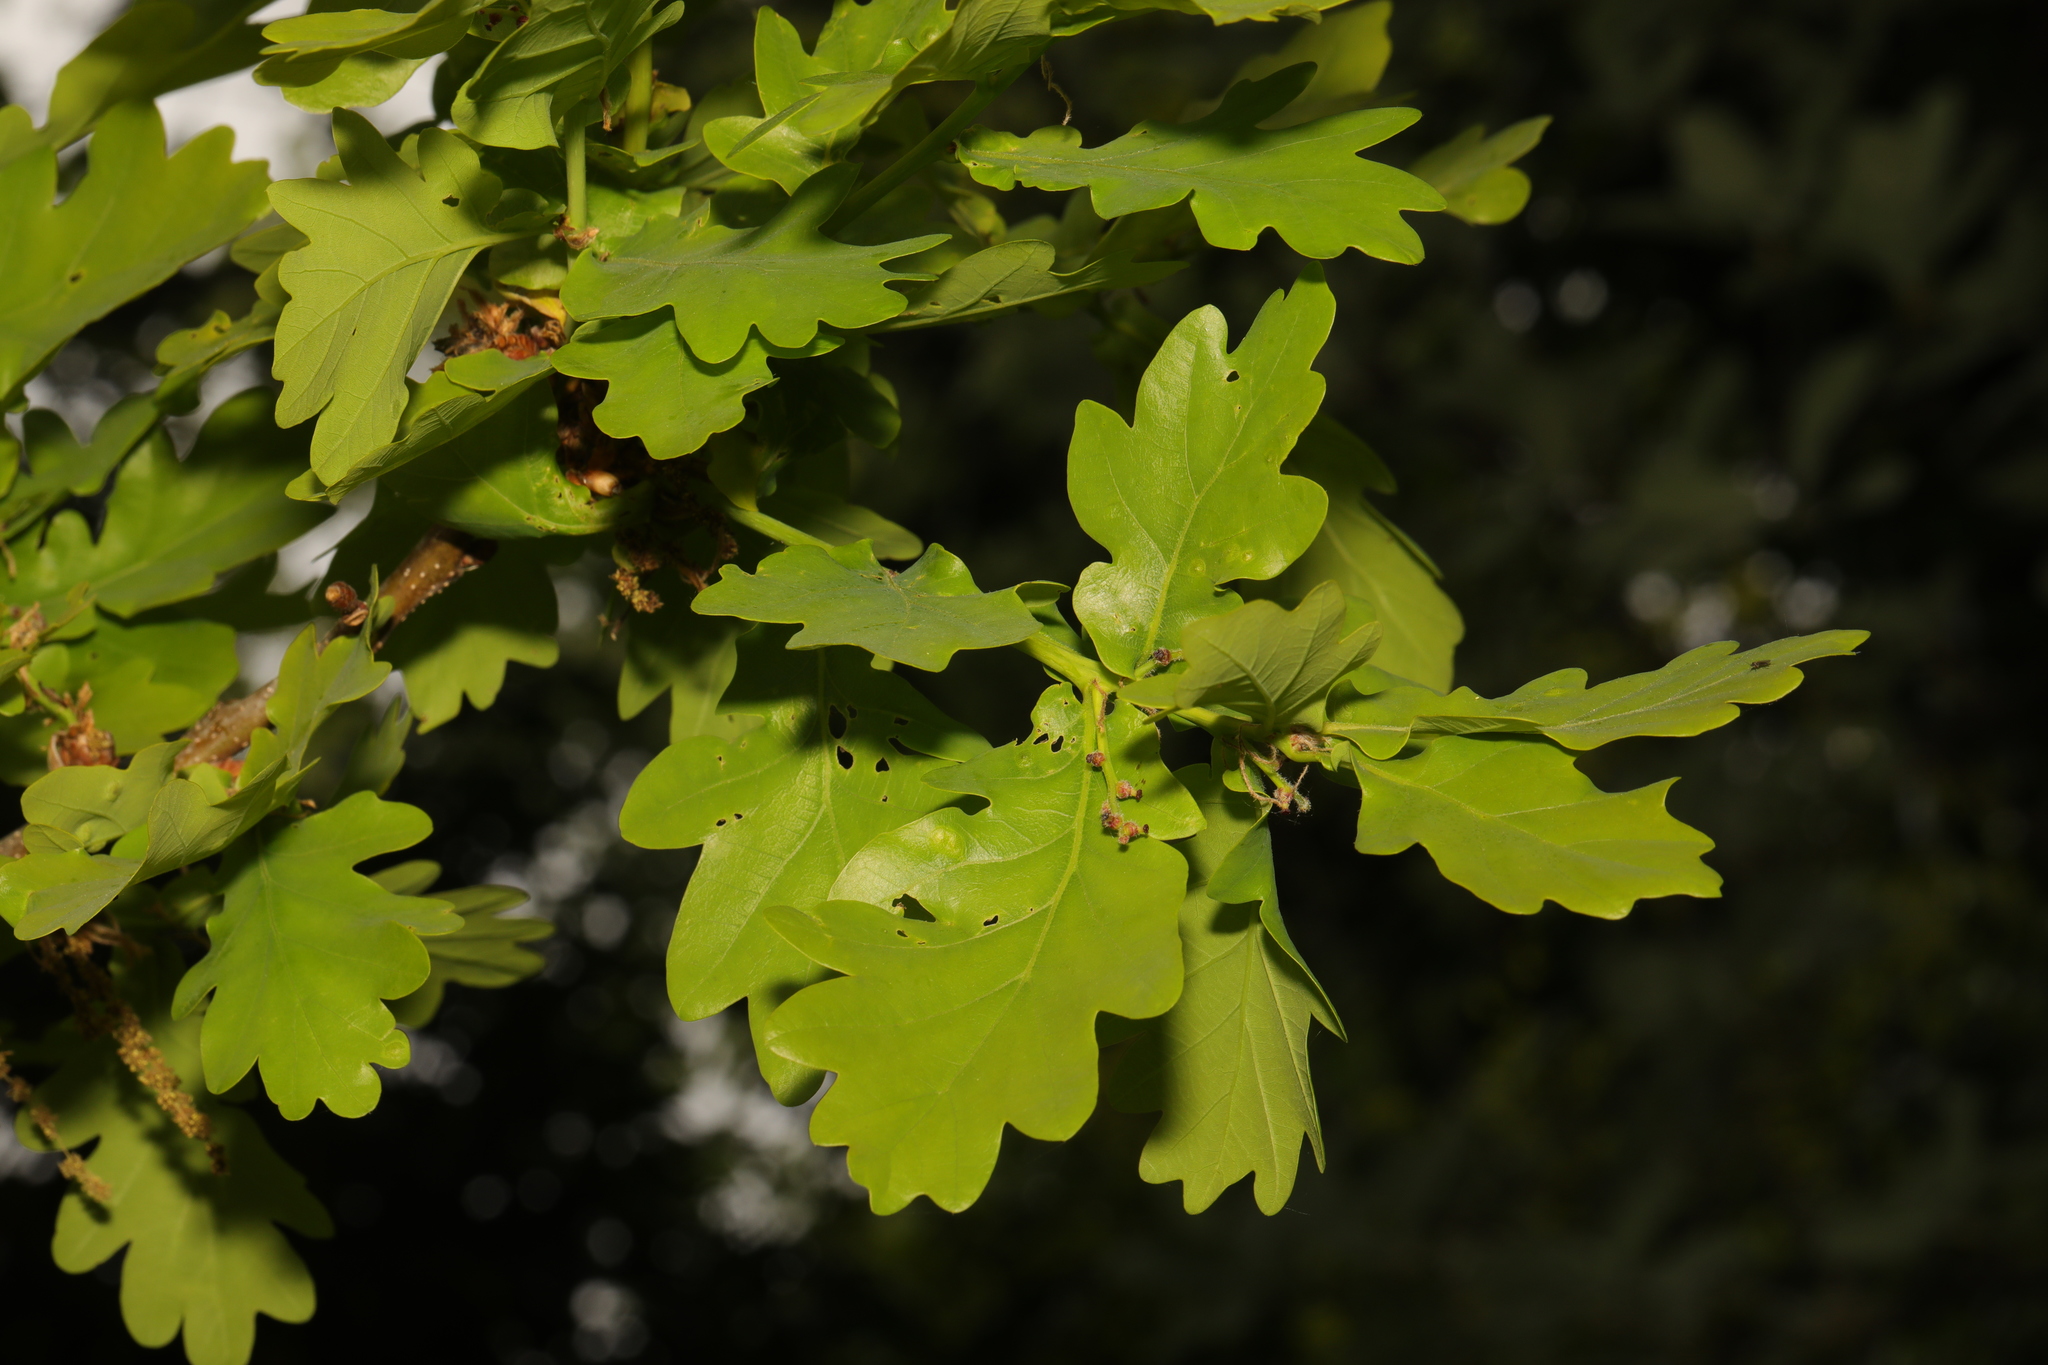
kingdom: Plantae
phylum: Tracheophyta
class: Magnoliopsida
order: Fagales
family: Fagaceae
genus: Quercus
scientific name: Quercus robur
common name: Pedunculate oak
